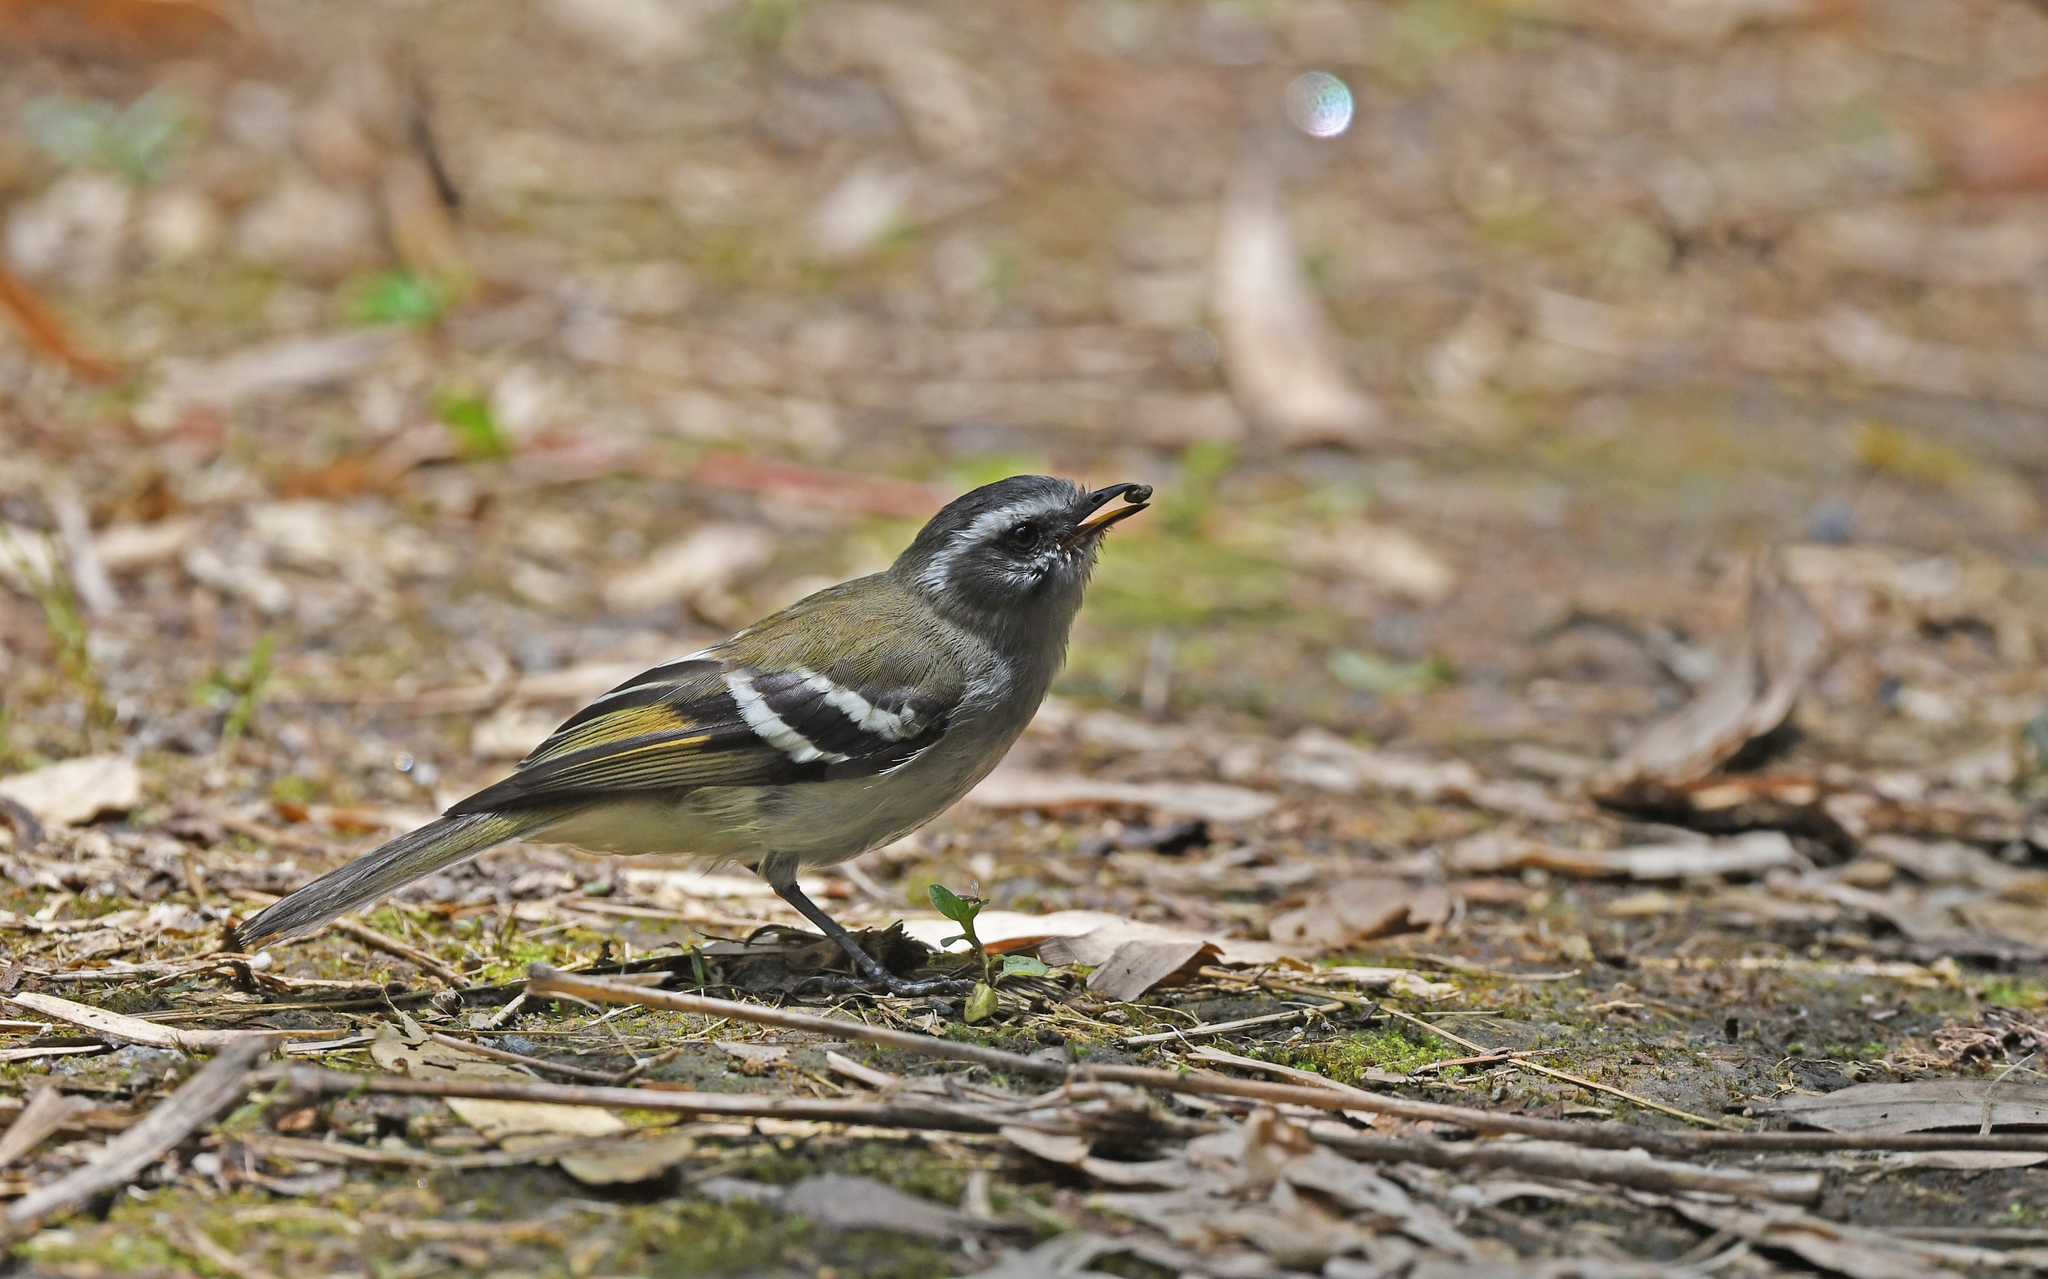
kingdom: Animalia
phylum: Chordata
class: Aves
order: Passeriformes
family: Tyrannidae
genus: Mecocerculus
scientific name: Mecocerculus stictopterus
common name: White-banded tyrannulet
